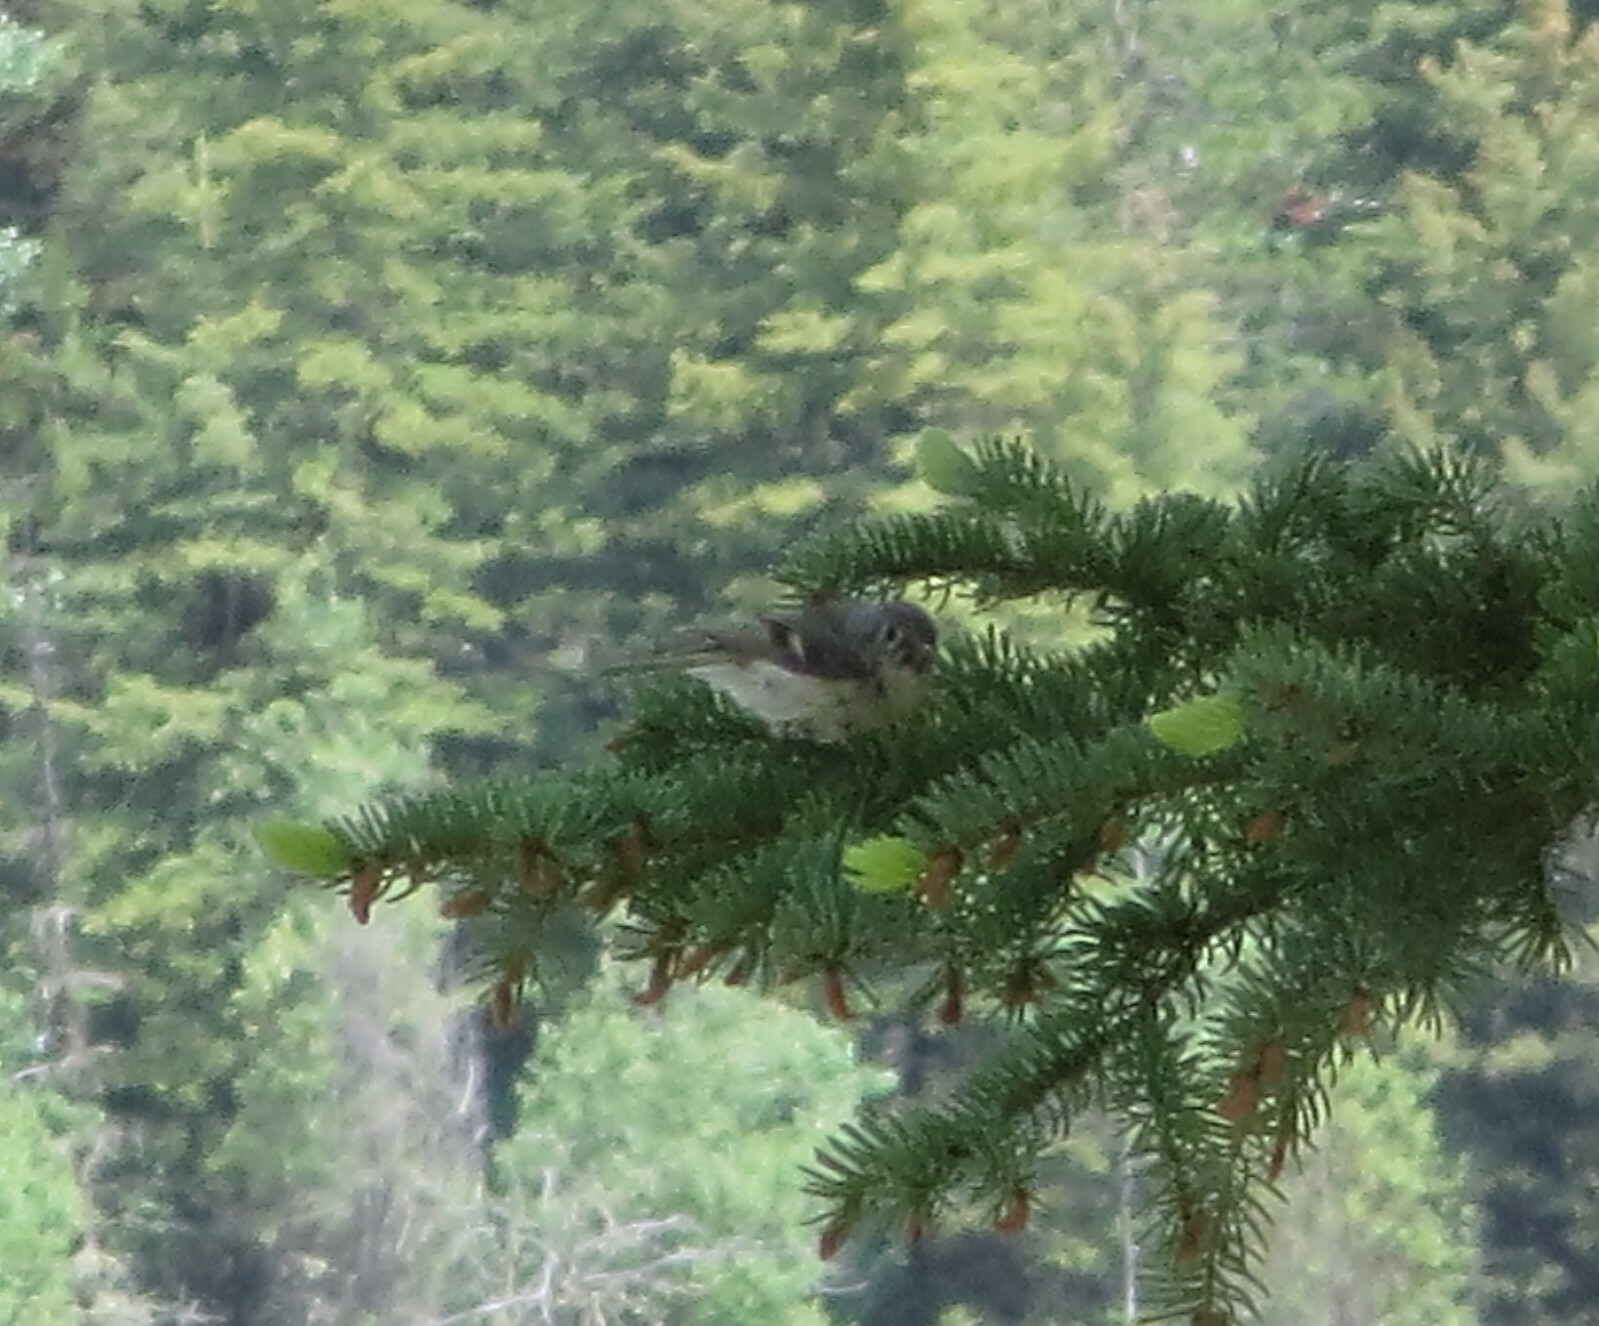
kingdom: Animalia
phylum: Chordata
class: Aves
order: Passeriformes
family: Regulidae
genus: Regulus
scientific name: Regulus calendula
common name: Ruby-crowned kinglet
